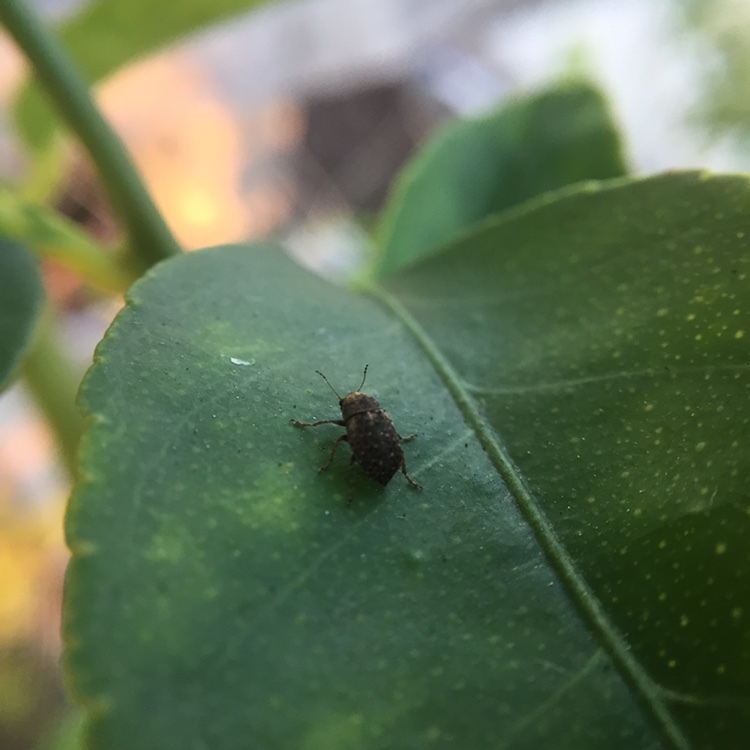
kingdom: Animalia
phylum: Arthropoda
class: Insecta
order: Coleoptera
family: Anthribidae
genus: Araecerus
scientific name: Araecerus fasciculatus
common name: Coffee bean weevil
